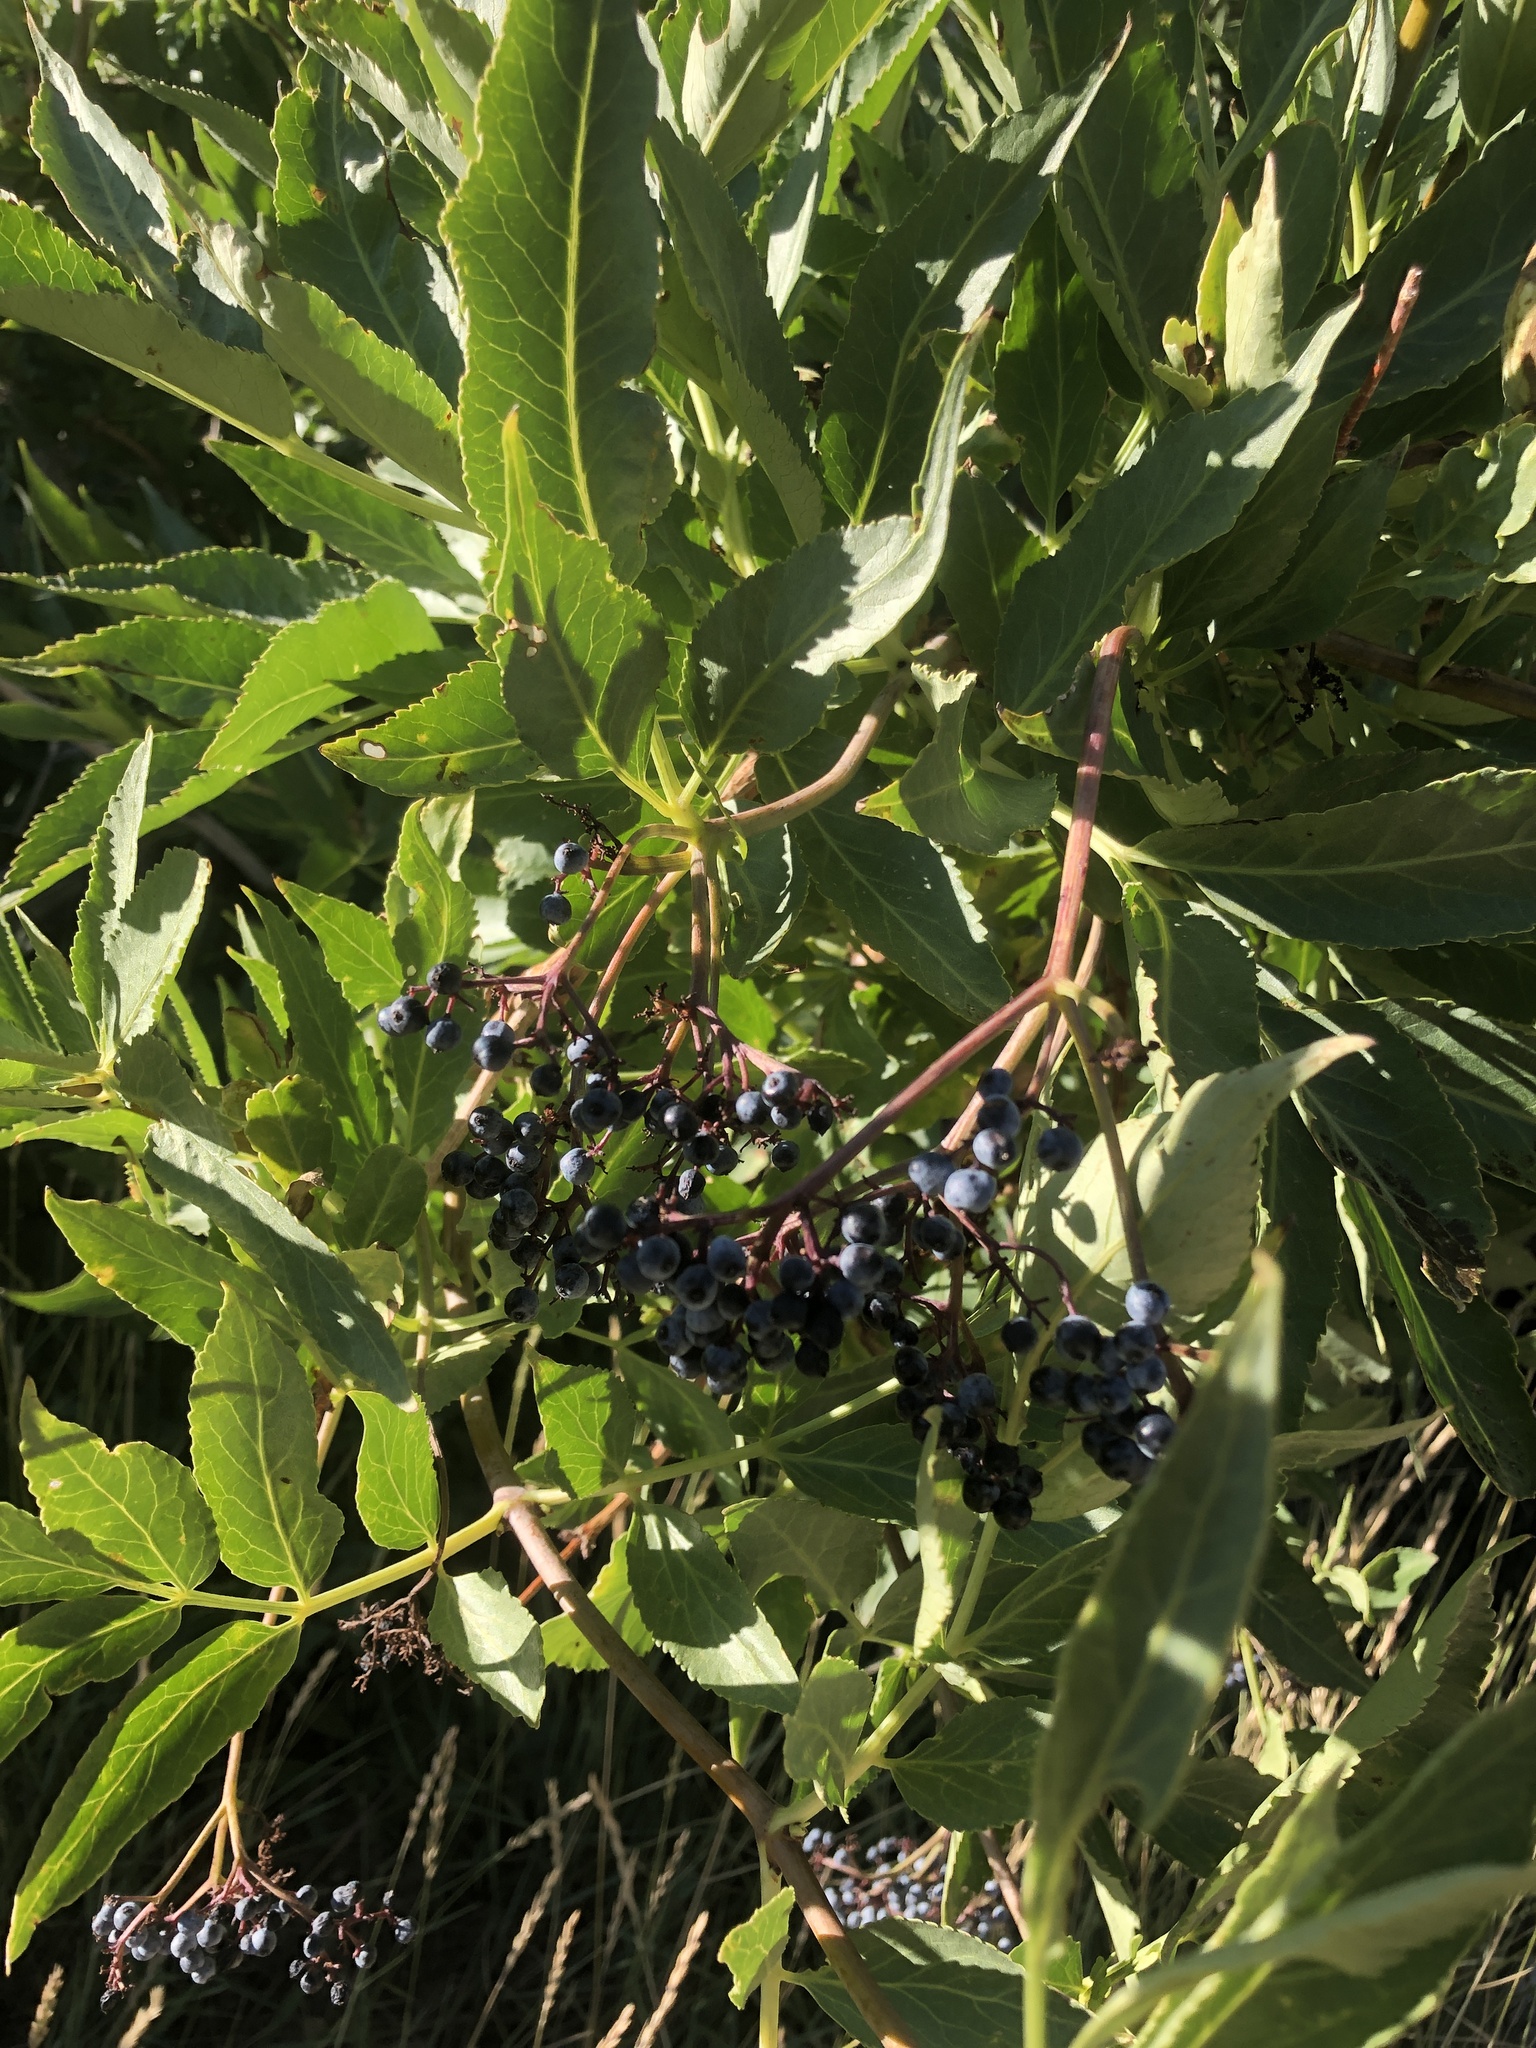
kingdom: Plantae
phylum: Tracheophyta
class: Magnoliopsida
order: Dipsacales
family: Viburnaceae
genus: Sambucus
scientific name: Sambucus cerulea
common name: Blue elder
